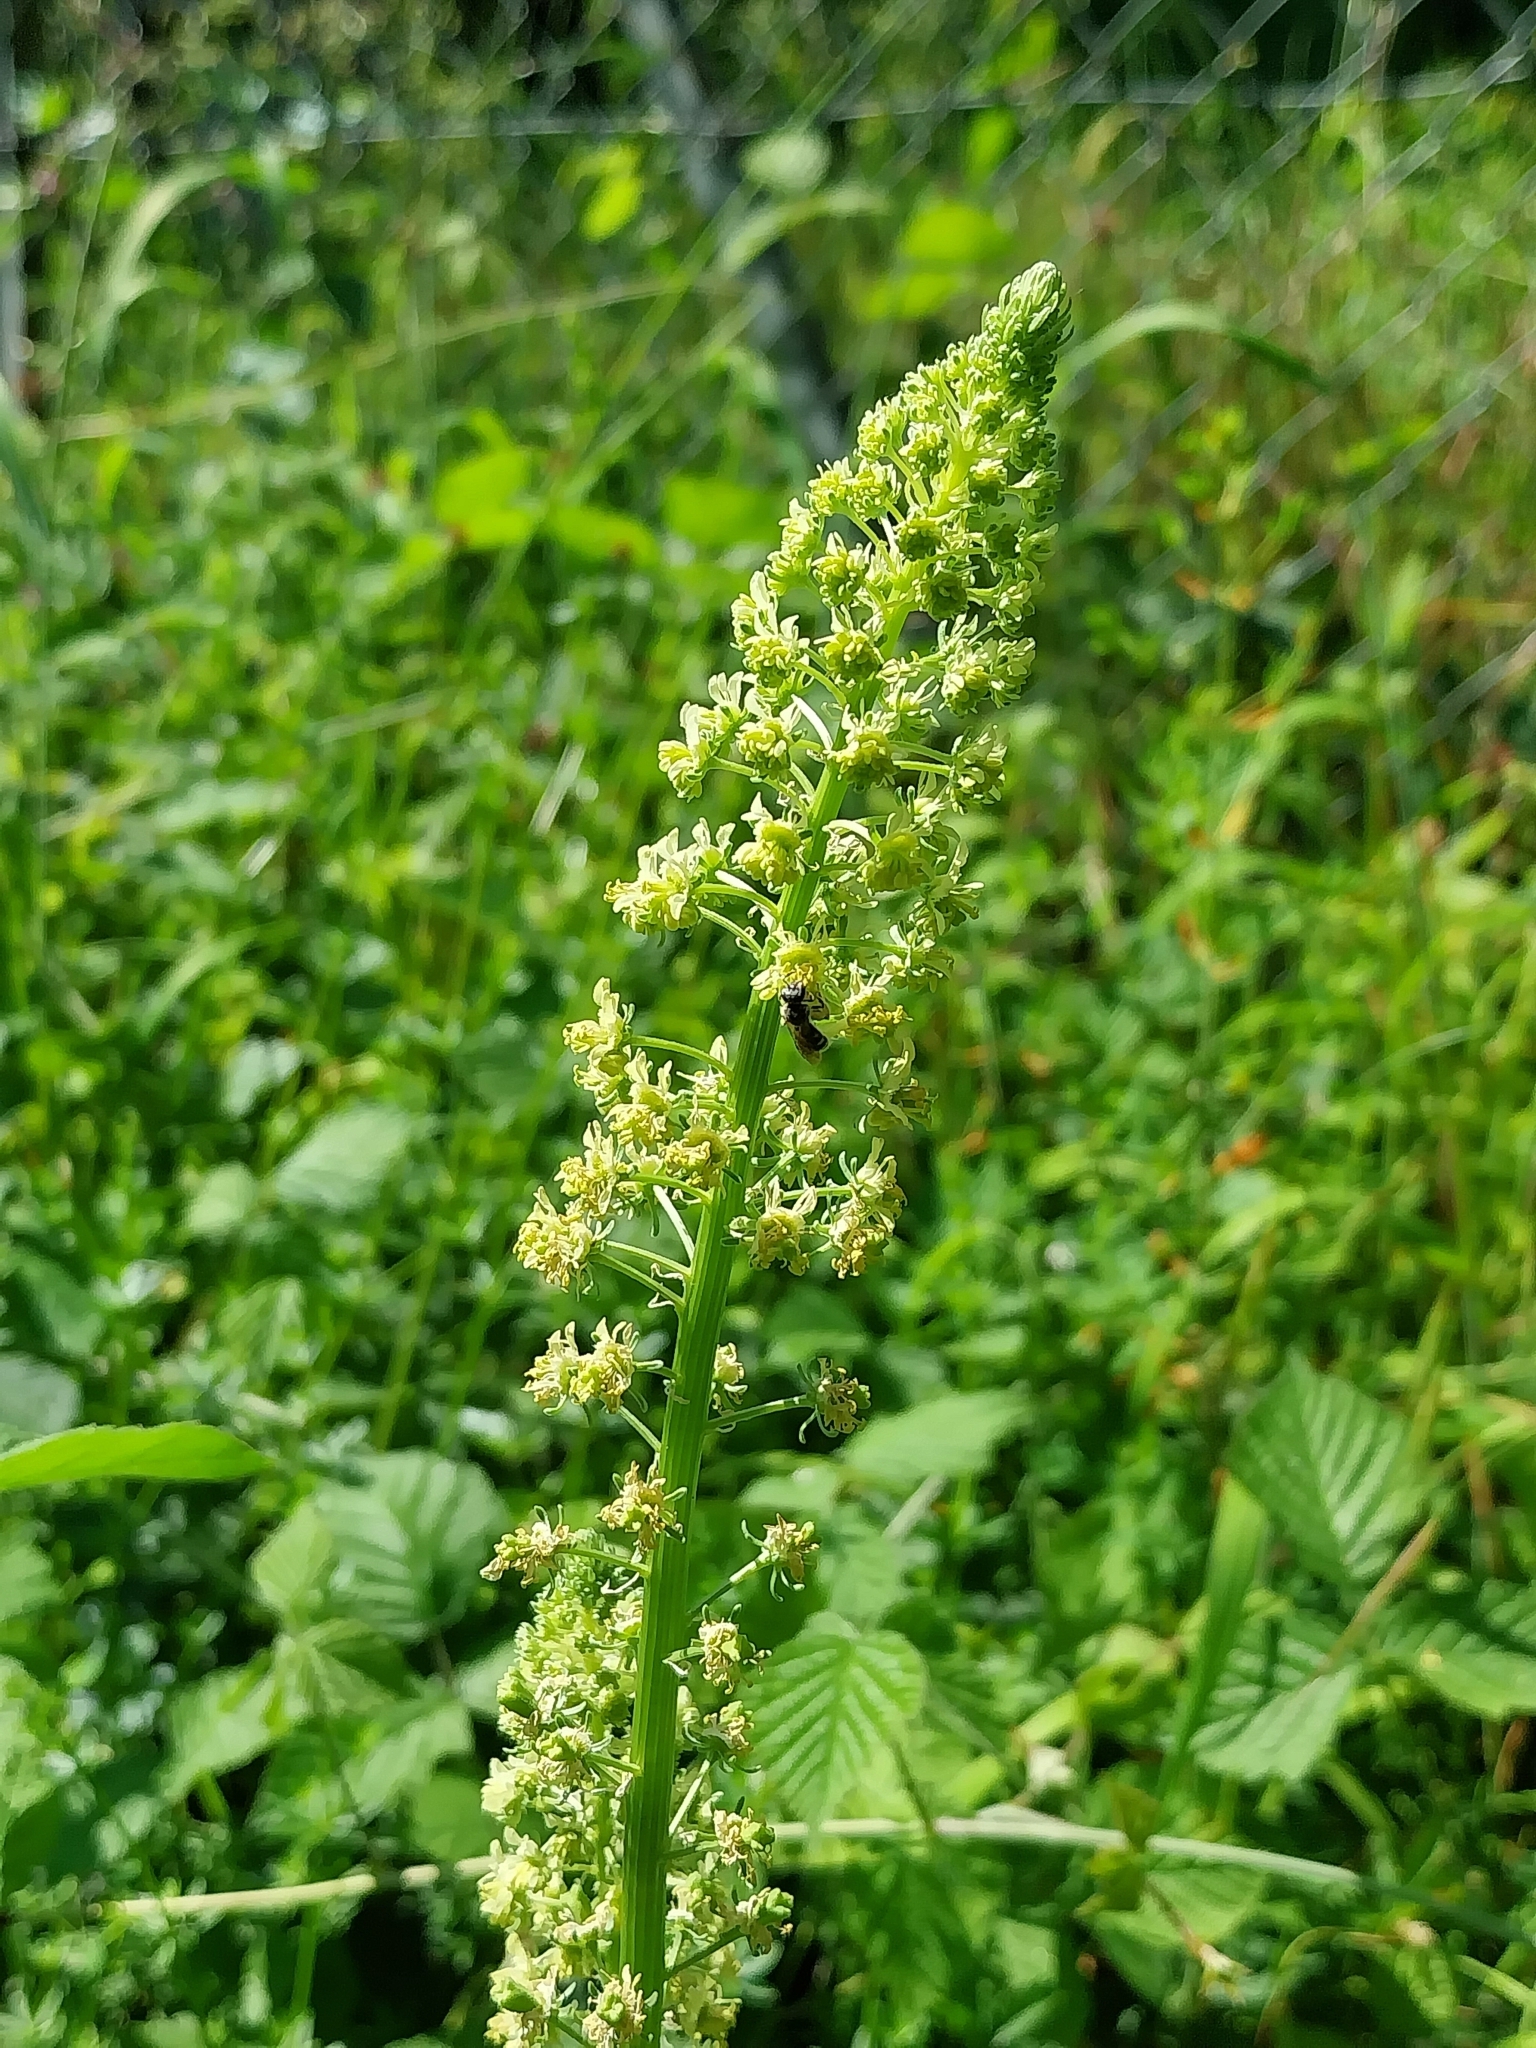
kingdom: Plantae
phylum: Tracheophyta
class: Magnoliopsida
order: Brassicales
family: Resedaceae
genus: Reseda
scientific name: Reseda lutea
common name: Wild mignonette
